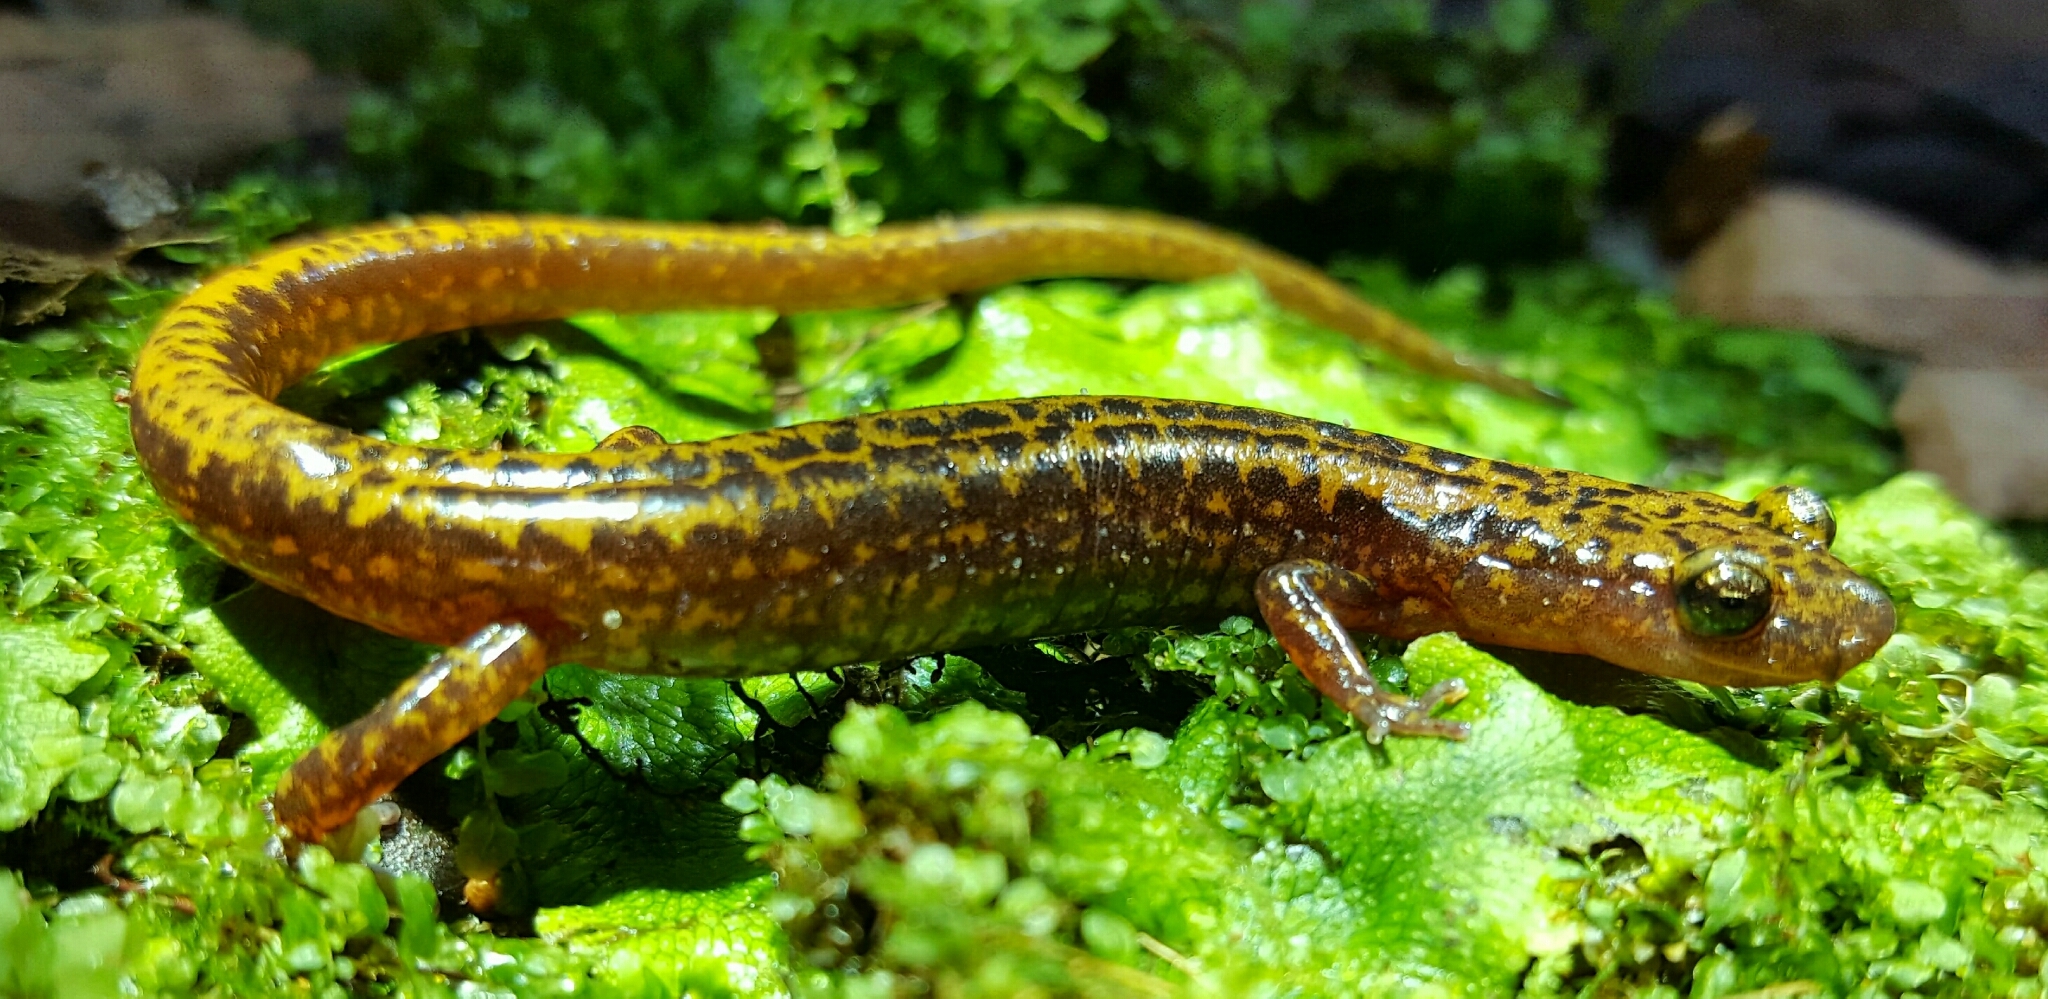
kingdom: Animalia
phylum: Chordata
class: Amphibia
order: Caudata
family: Plethodontidae
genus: Eurycea
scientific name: Eurycea longicauda
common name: Long-tailed salamander
